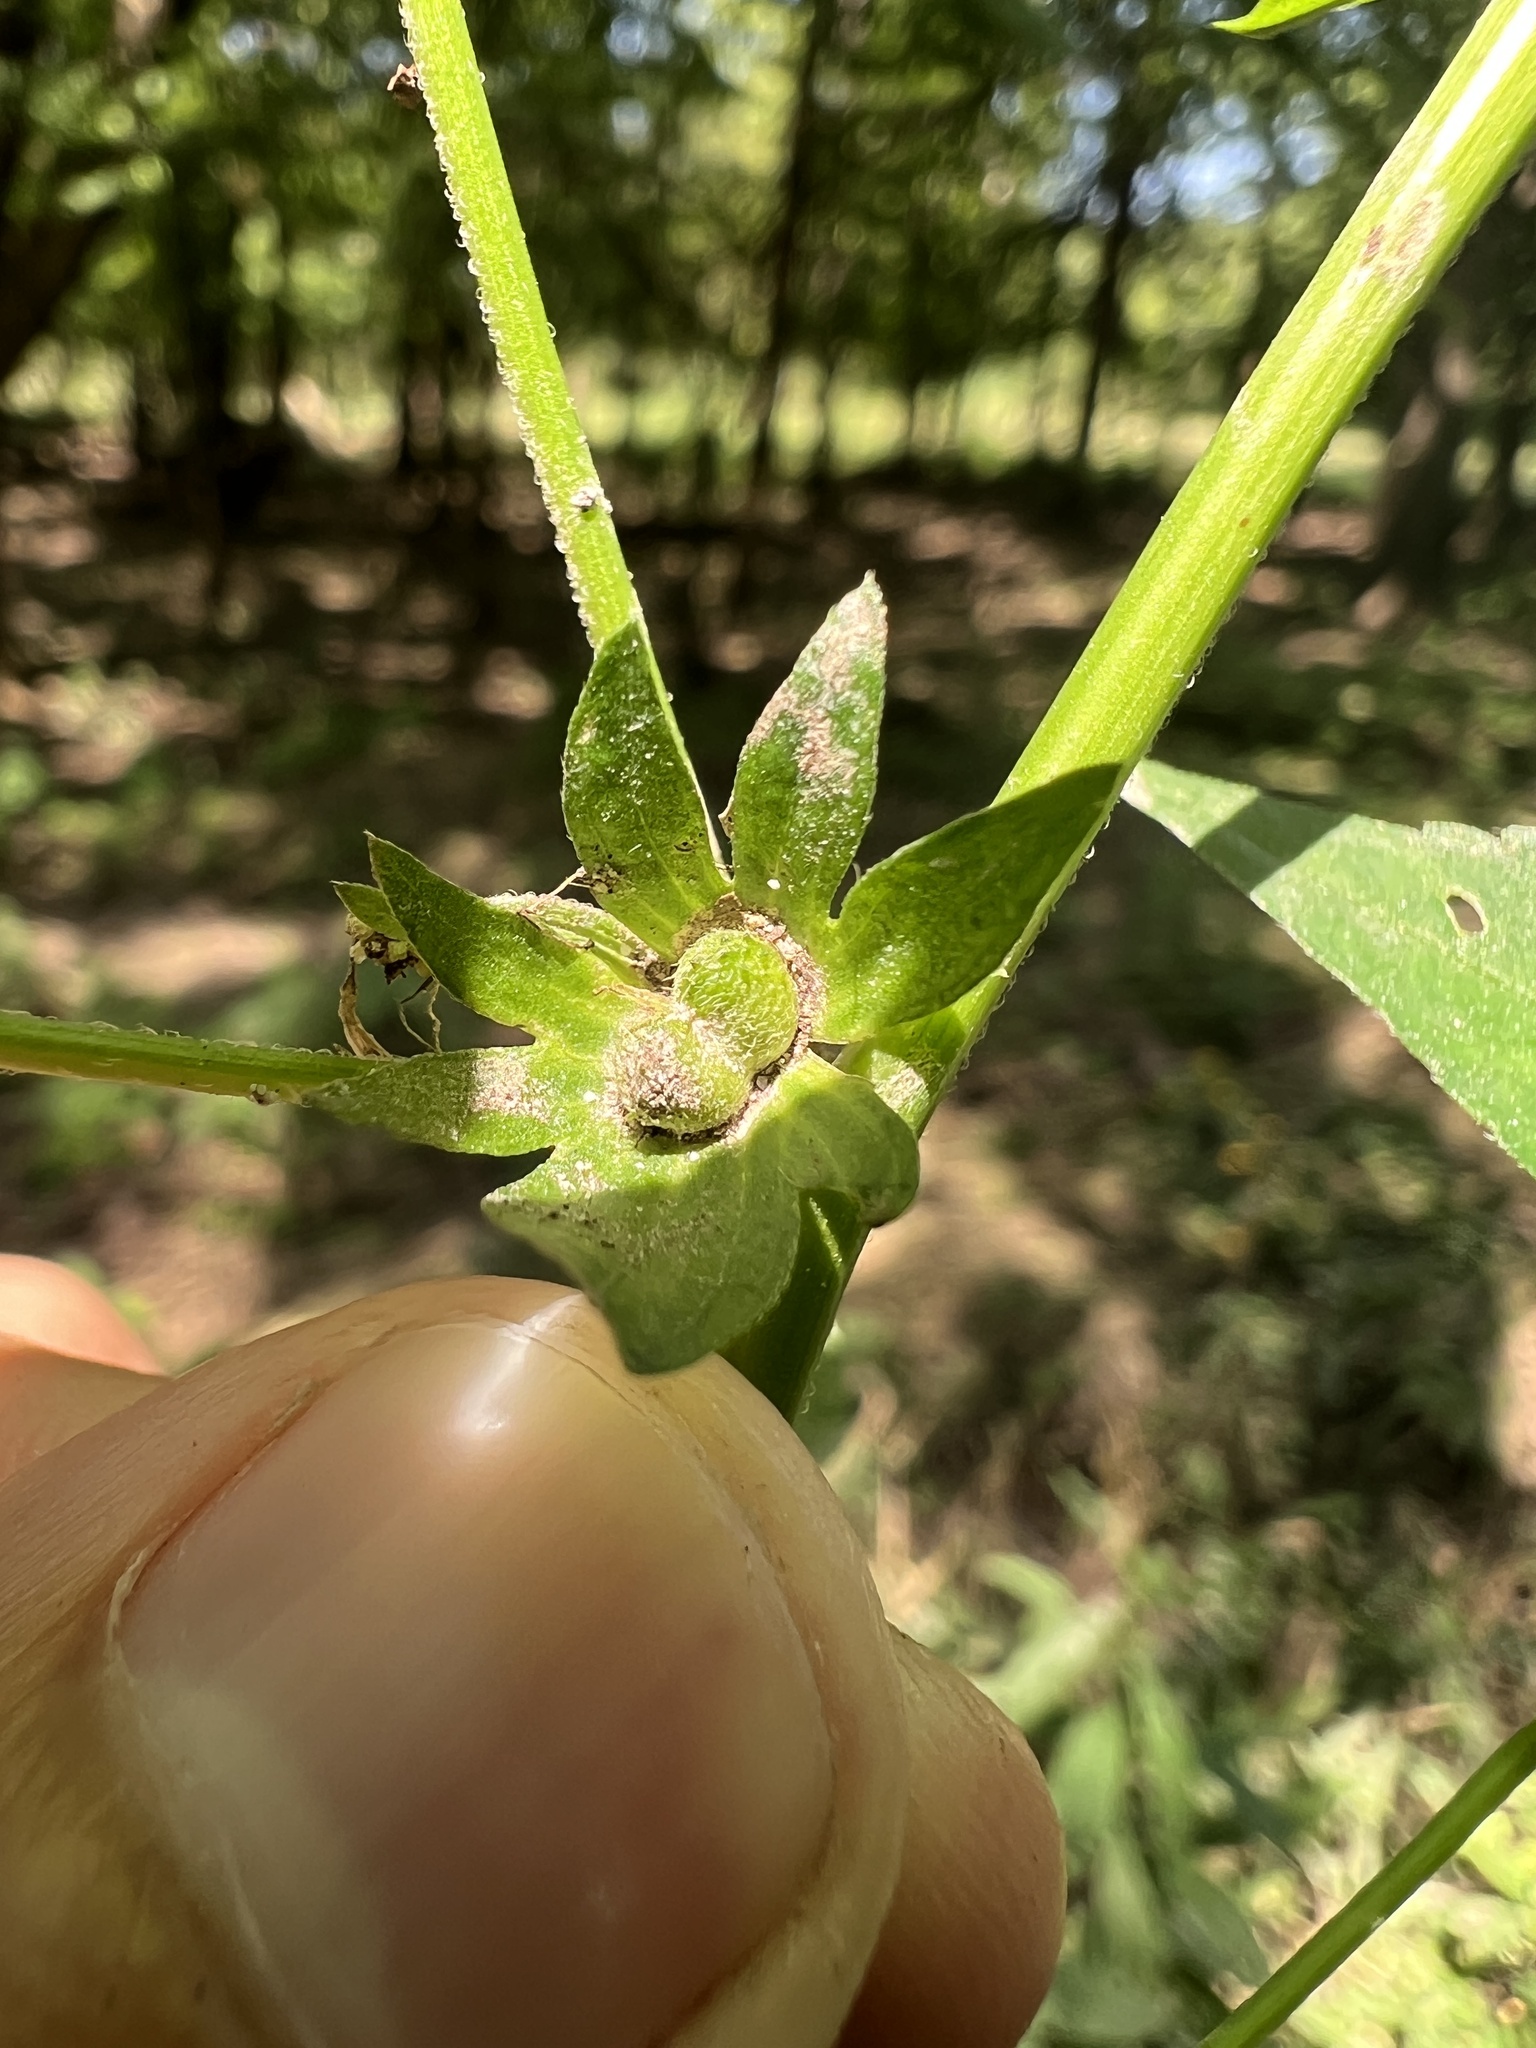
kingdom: Plantae
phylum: Tracheophyta
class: Magnoliopsida
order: Malpighiales
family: Euphorbiaceae
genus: Acalypha
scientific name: Acalypha deamii
